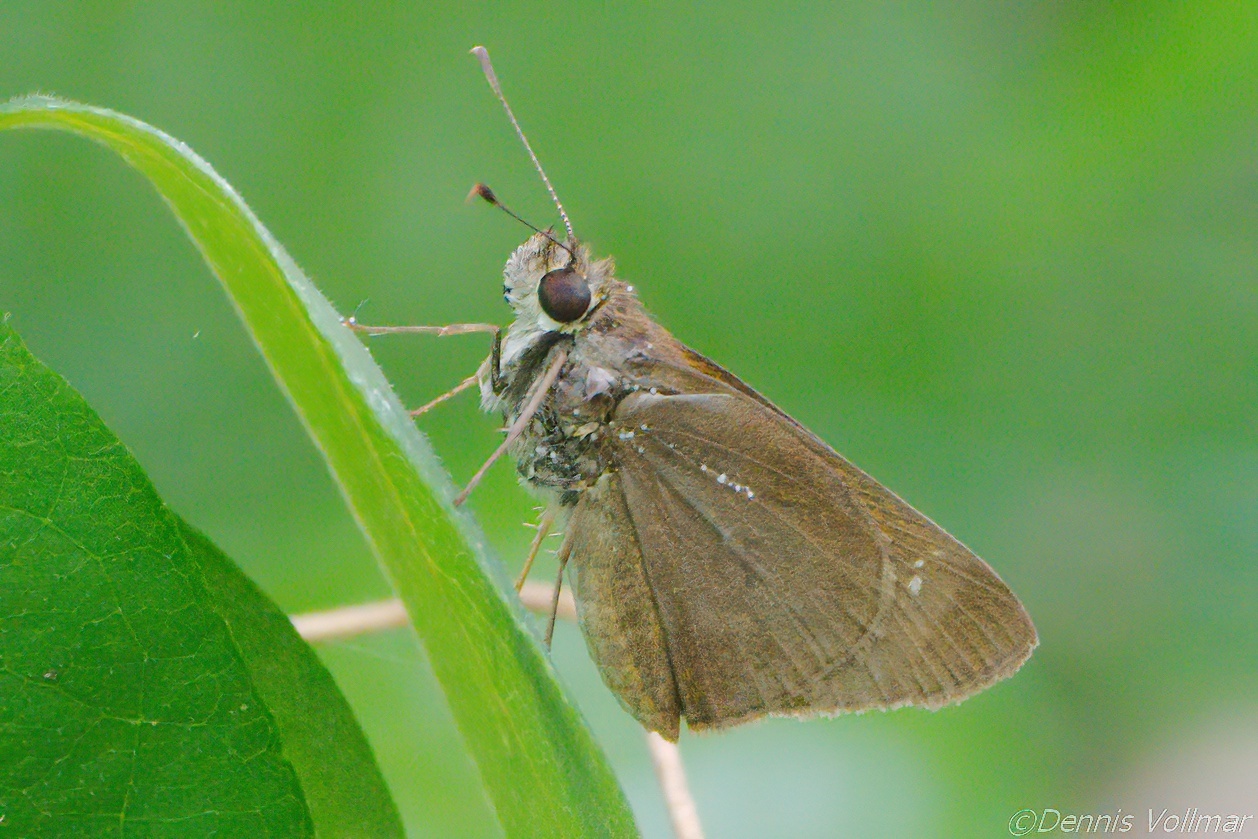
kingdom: Animalia
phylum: Arthropoda
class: Insecta
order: Lepidoptera
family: Hesperiidae
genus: Cymaenes
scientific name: Cymaenes tripunctus
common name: Dingy dotted skipper
